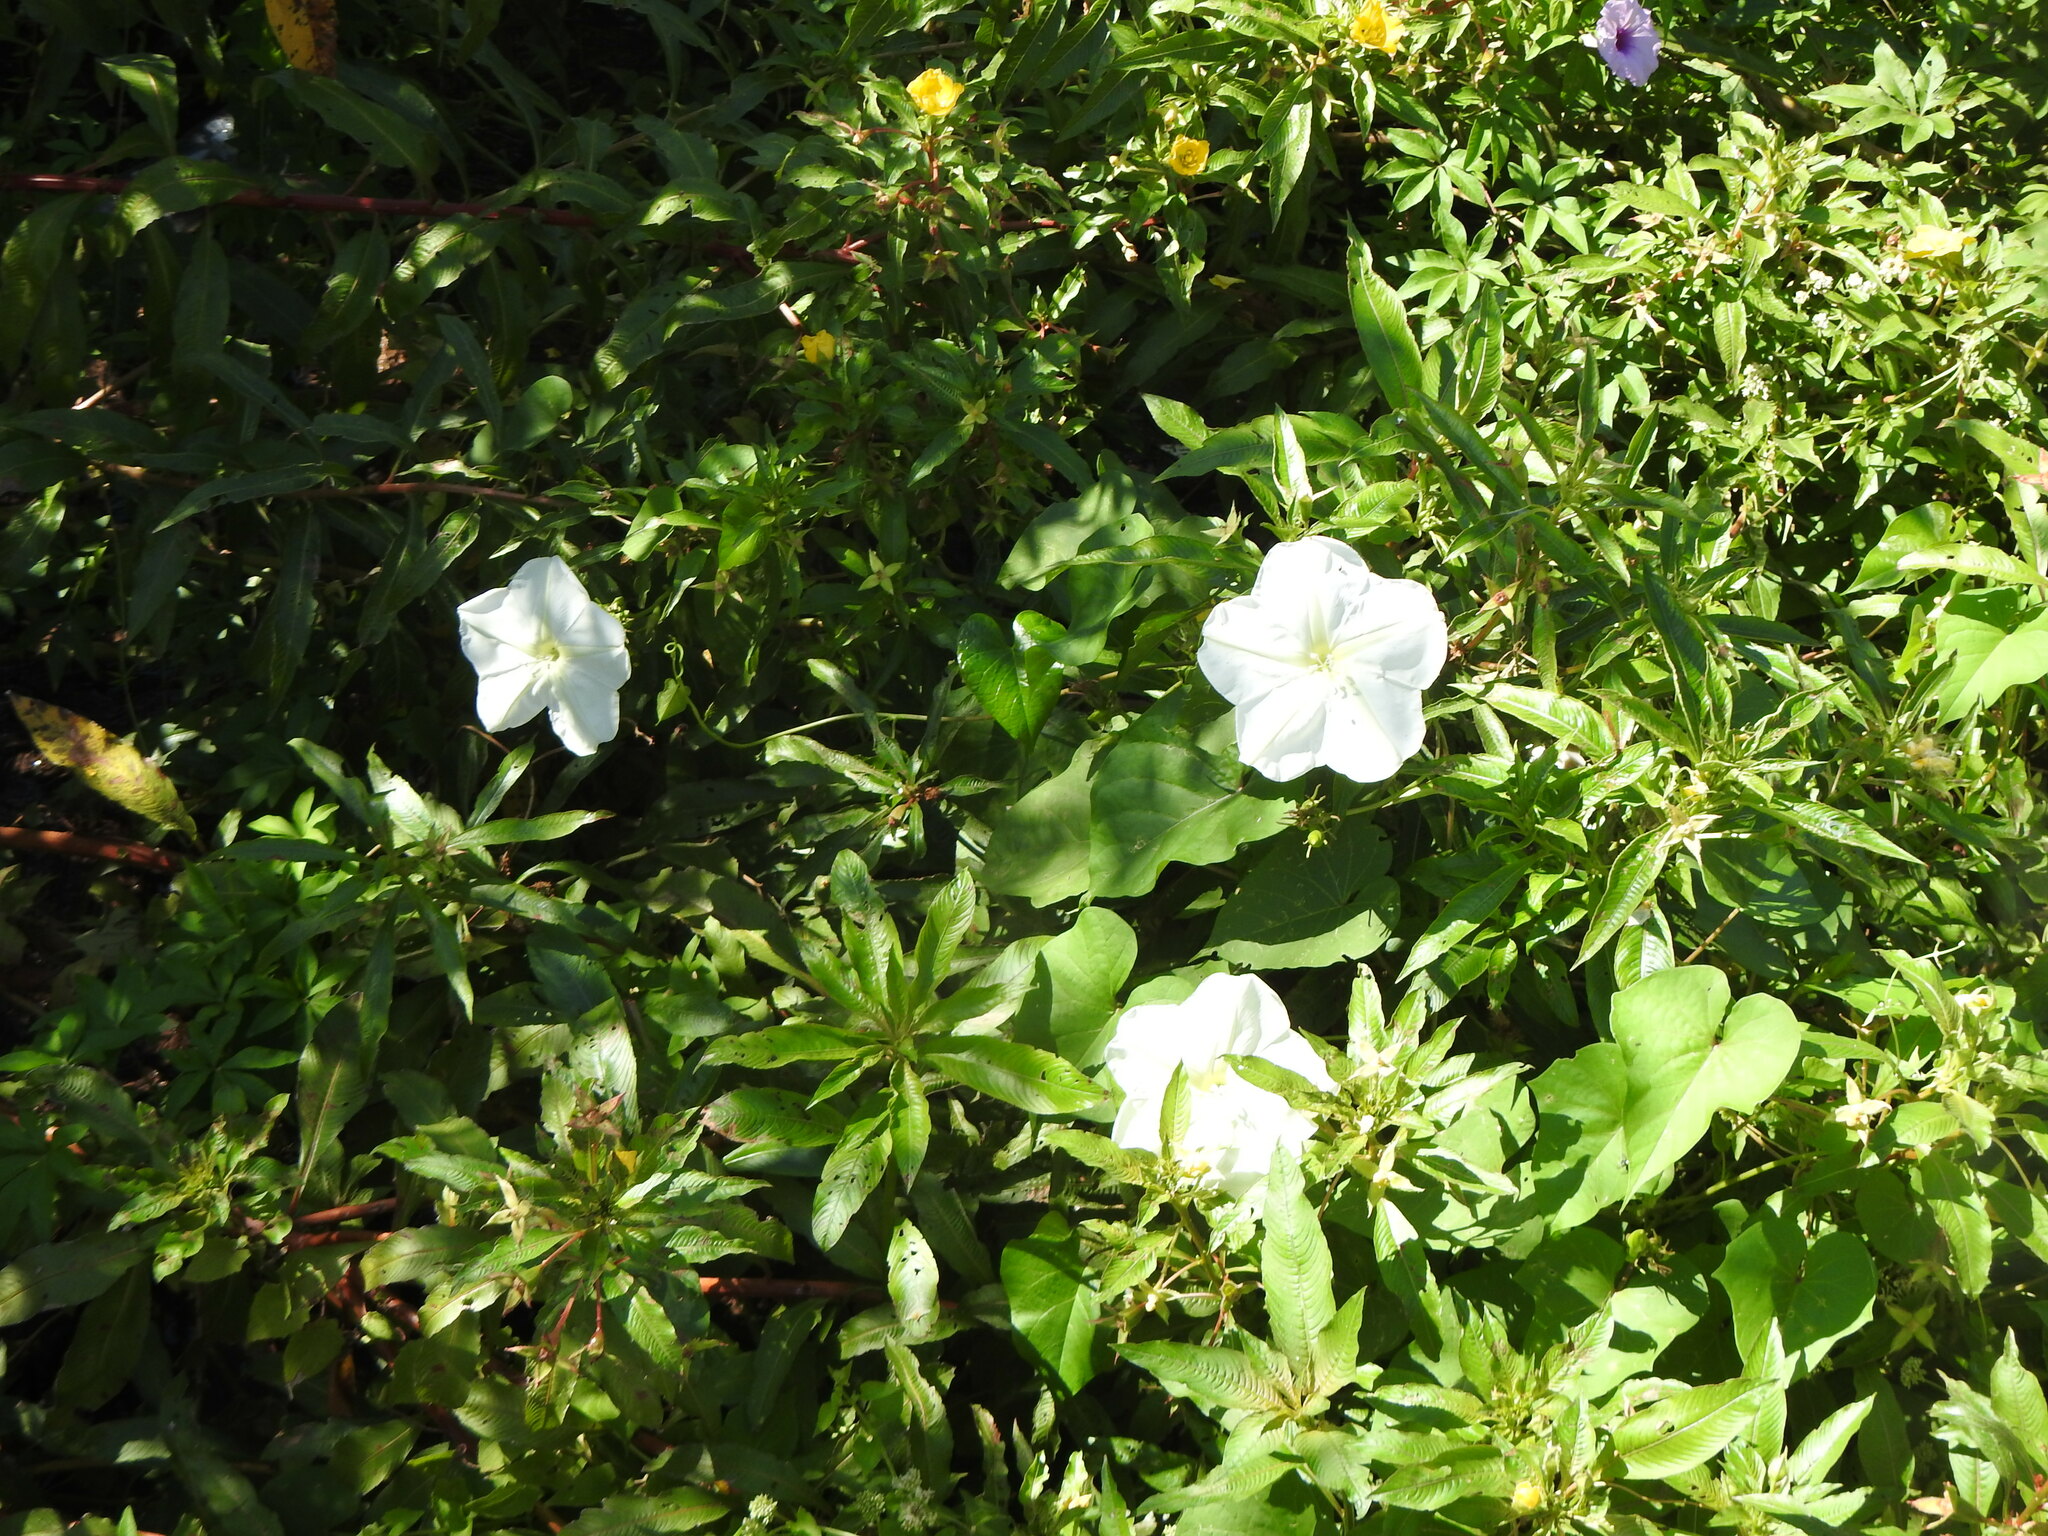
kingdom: Plantae
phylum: Tracheophyta
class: Magnoliopsida
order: Solanales
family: Convolvulaceae
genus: Ipomoea
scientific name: Ipomoea alba
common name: Moonflower
